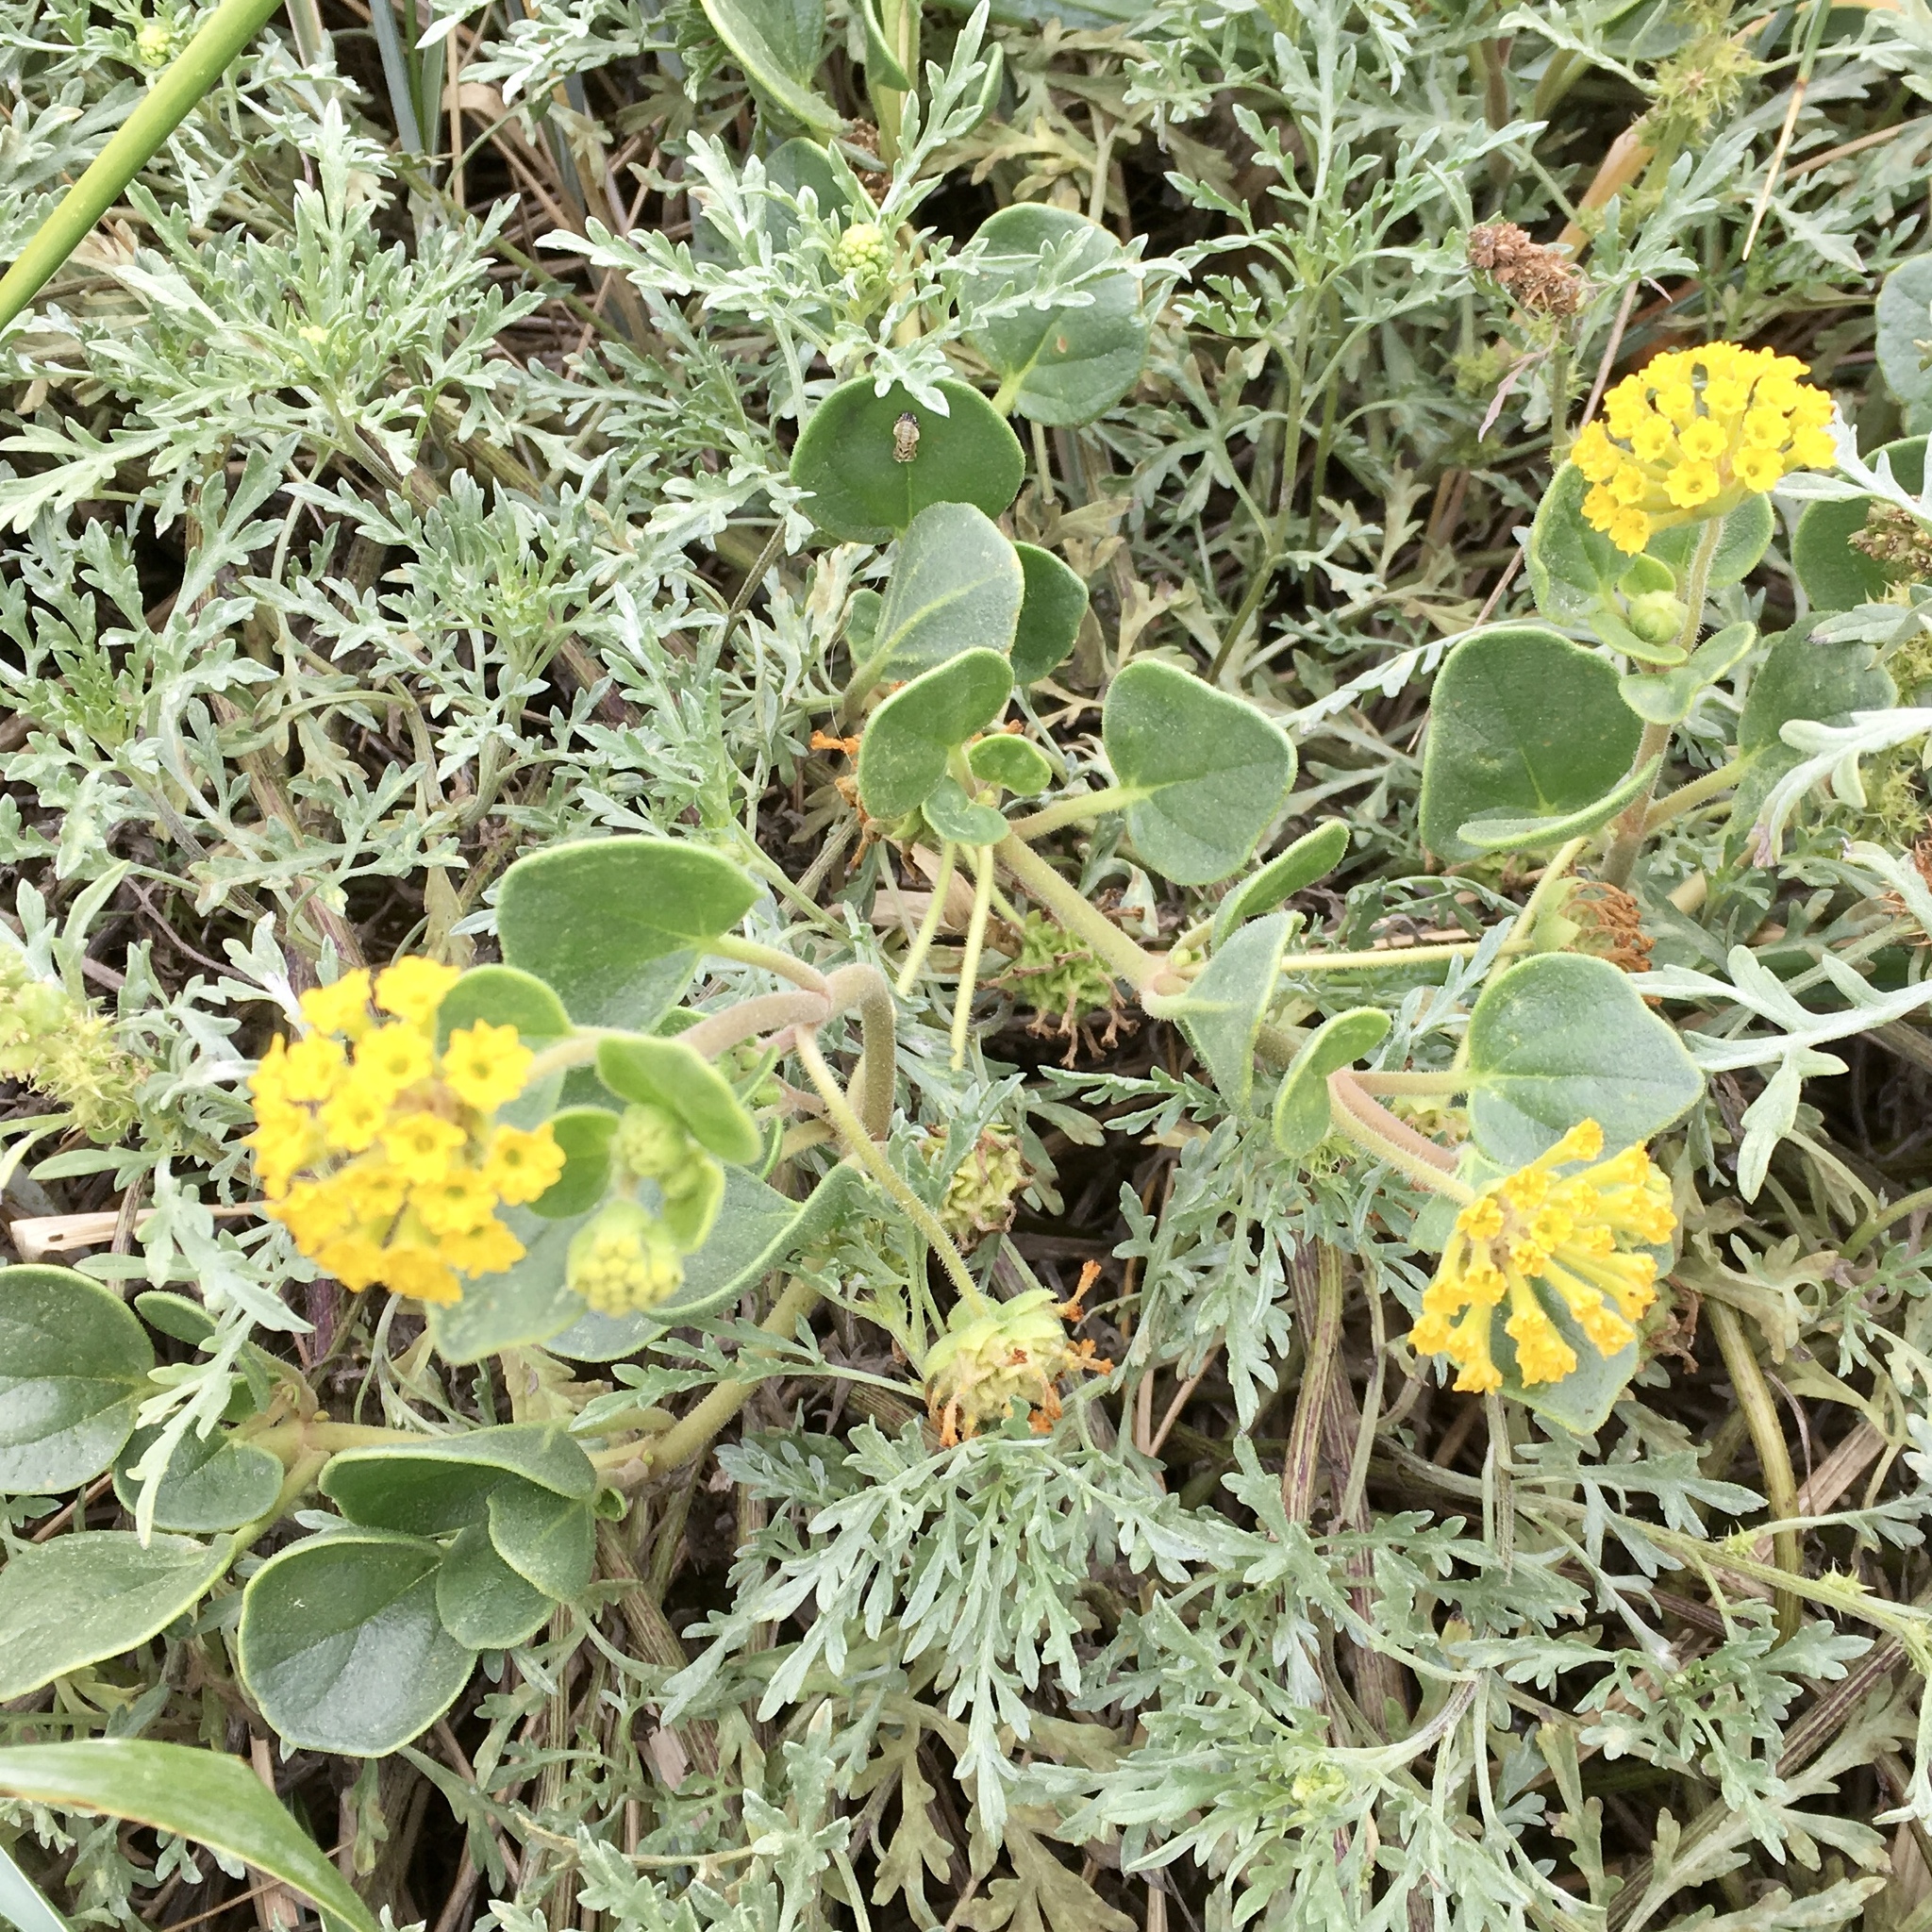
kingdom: Plantae
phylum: Tracheophyta
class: Magnoliopsida
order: Caryophyllales
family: Nyctaginaceae
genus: Abronia
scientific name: Abronia latifolia
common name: Yellow sand-verbena
